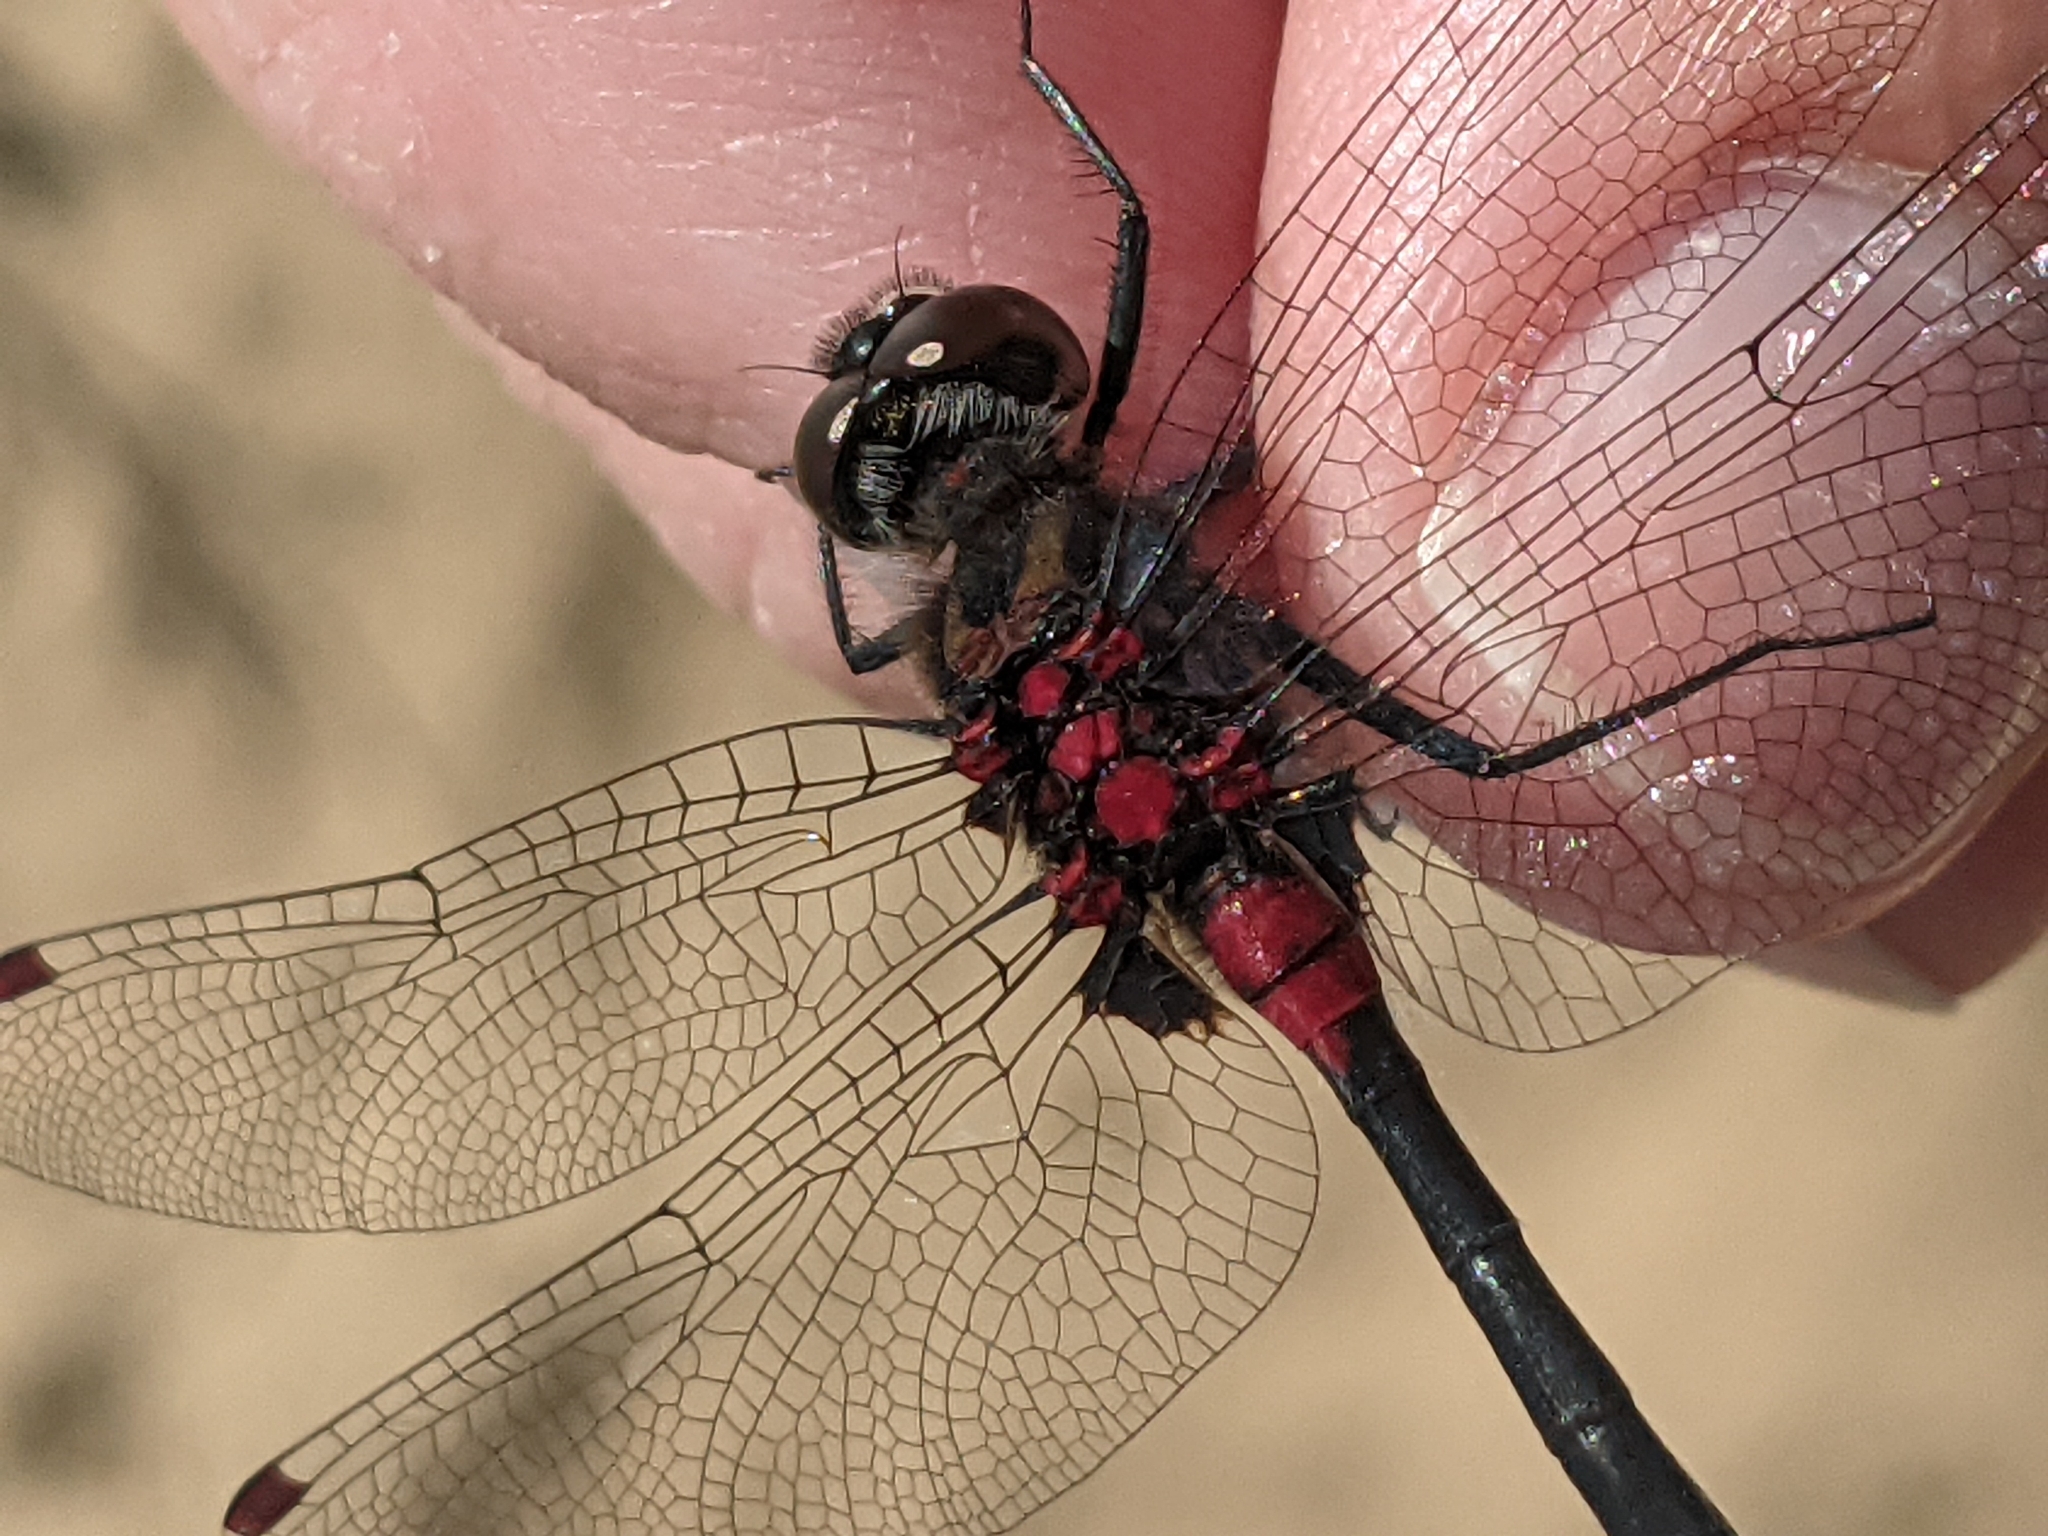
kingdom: Animalia
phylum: Arthropoda
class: Insecta
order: Odonata
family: Libellulidae
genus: Leucorrhinia
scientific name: Leucorrhinia glacialis
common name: Crimson-ringed whiteface
